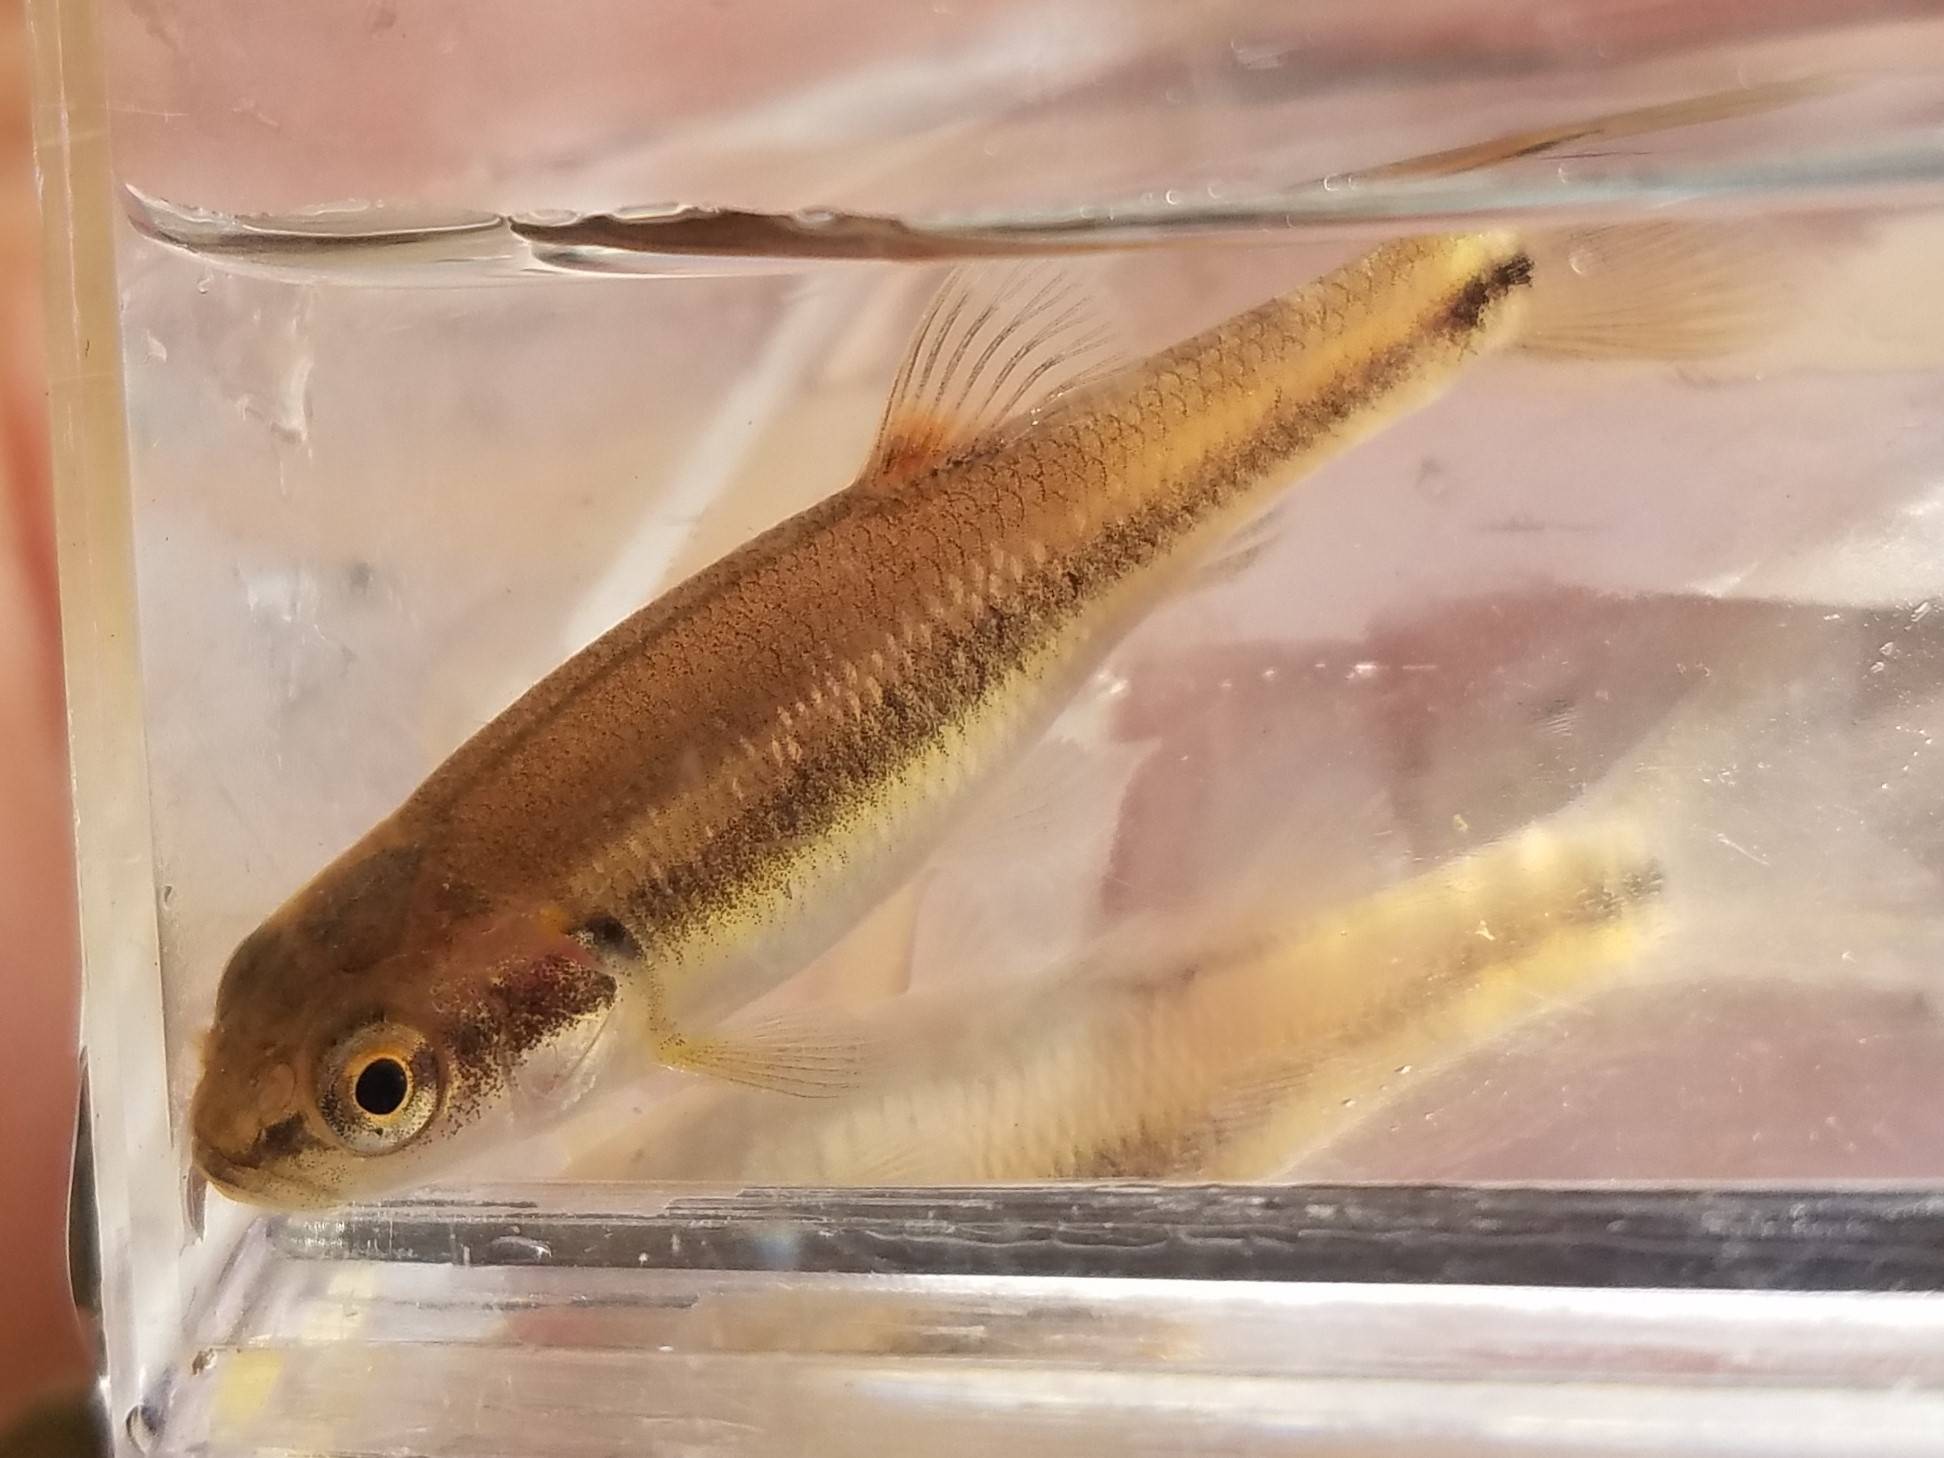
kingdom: Animalia
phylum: Chordata
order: Cypriniformes
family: Cyprinidae
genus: Semotilus
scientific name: Semotilus atromaculatus
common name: Creek chub
